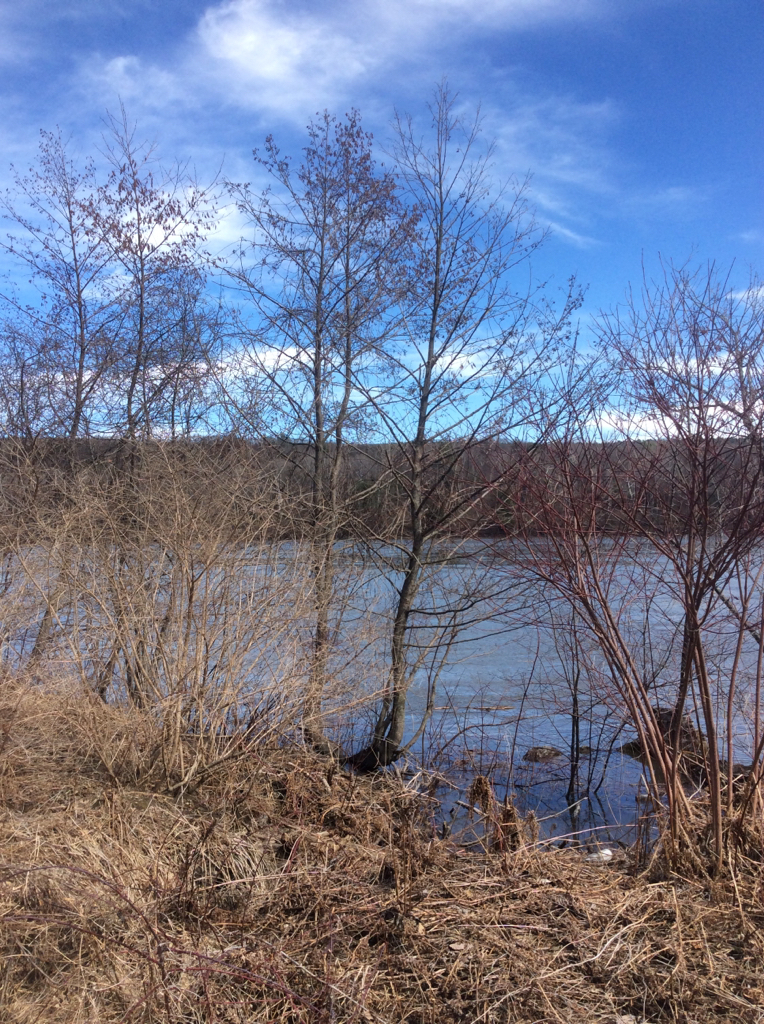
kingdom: Plantae
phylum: Tracheophyta
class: Magnoliopsida
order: Fagales
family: Betulaceae
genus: Alnus
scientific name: Alnus glutinosa
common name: Black alder
